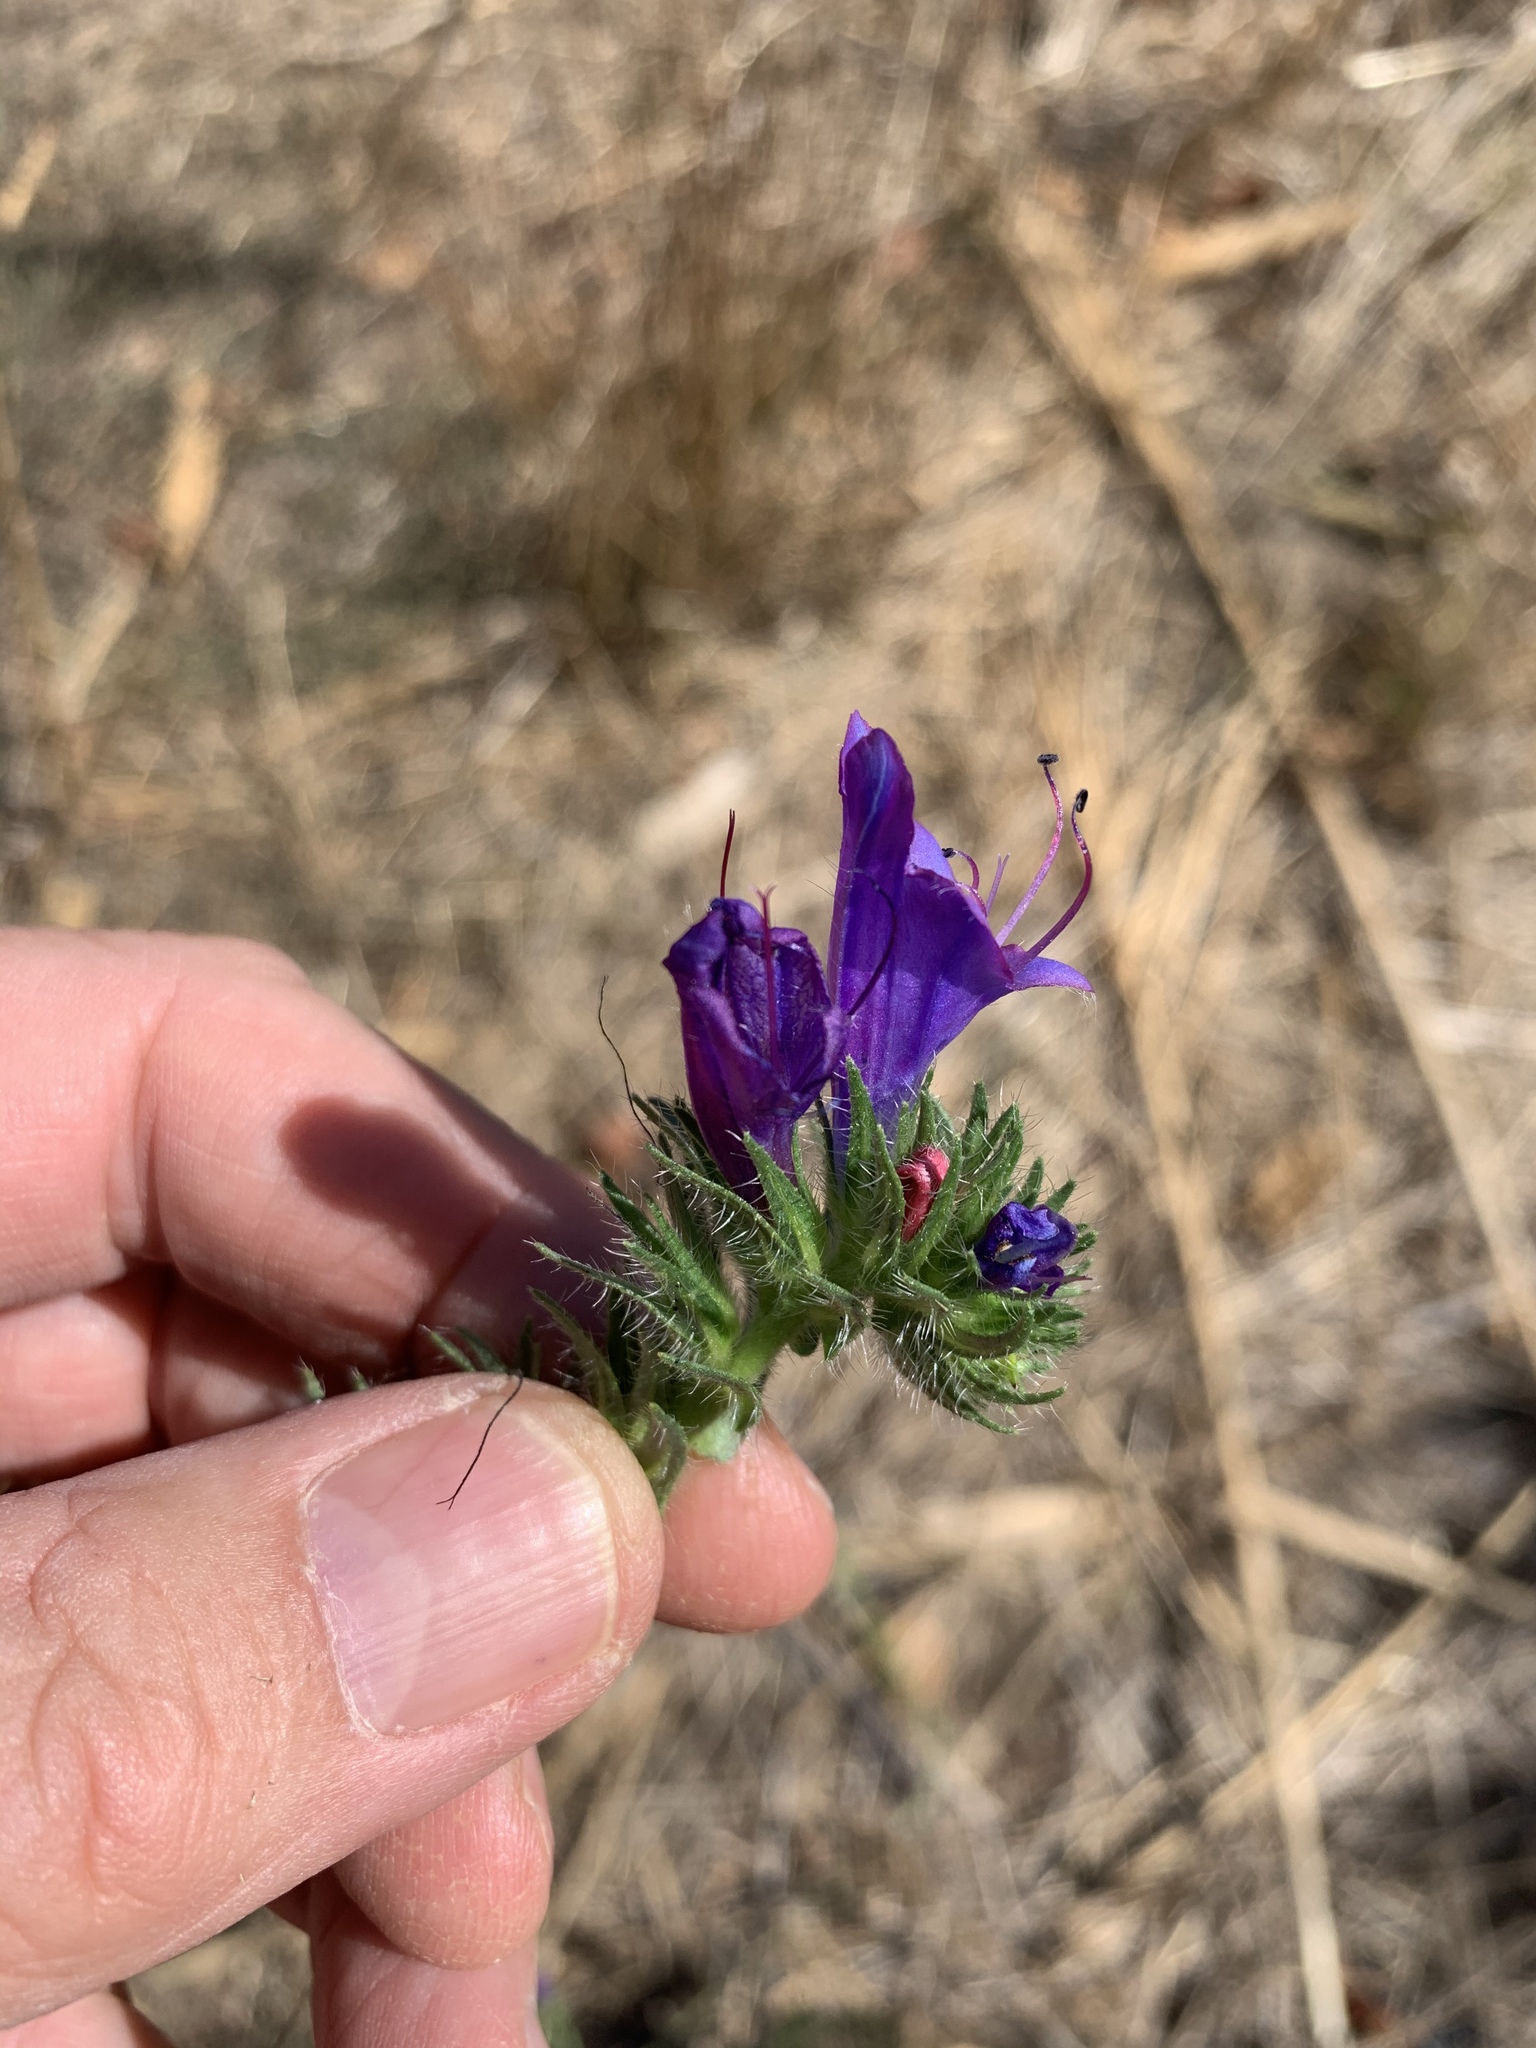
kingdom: Plantae
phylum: Tracheophyta
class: Magnoliopsida
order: Boraginales
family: Boraginaceae
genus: Echium
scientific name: Echium plantagineum
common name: Purple viper's-bugloss
